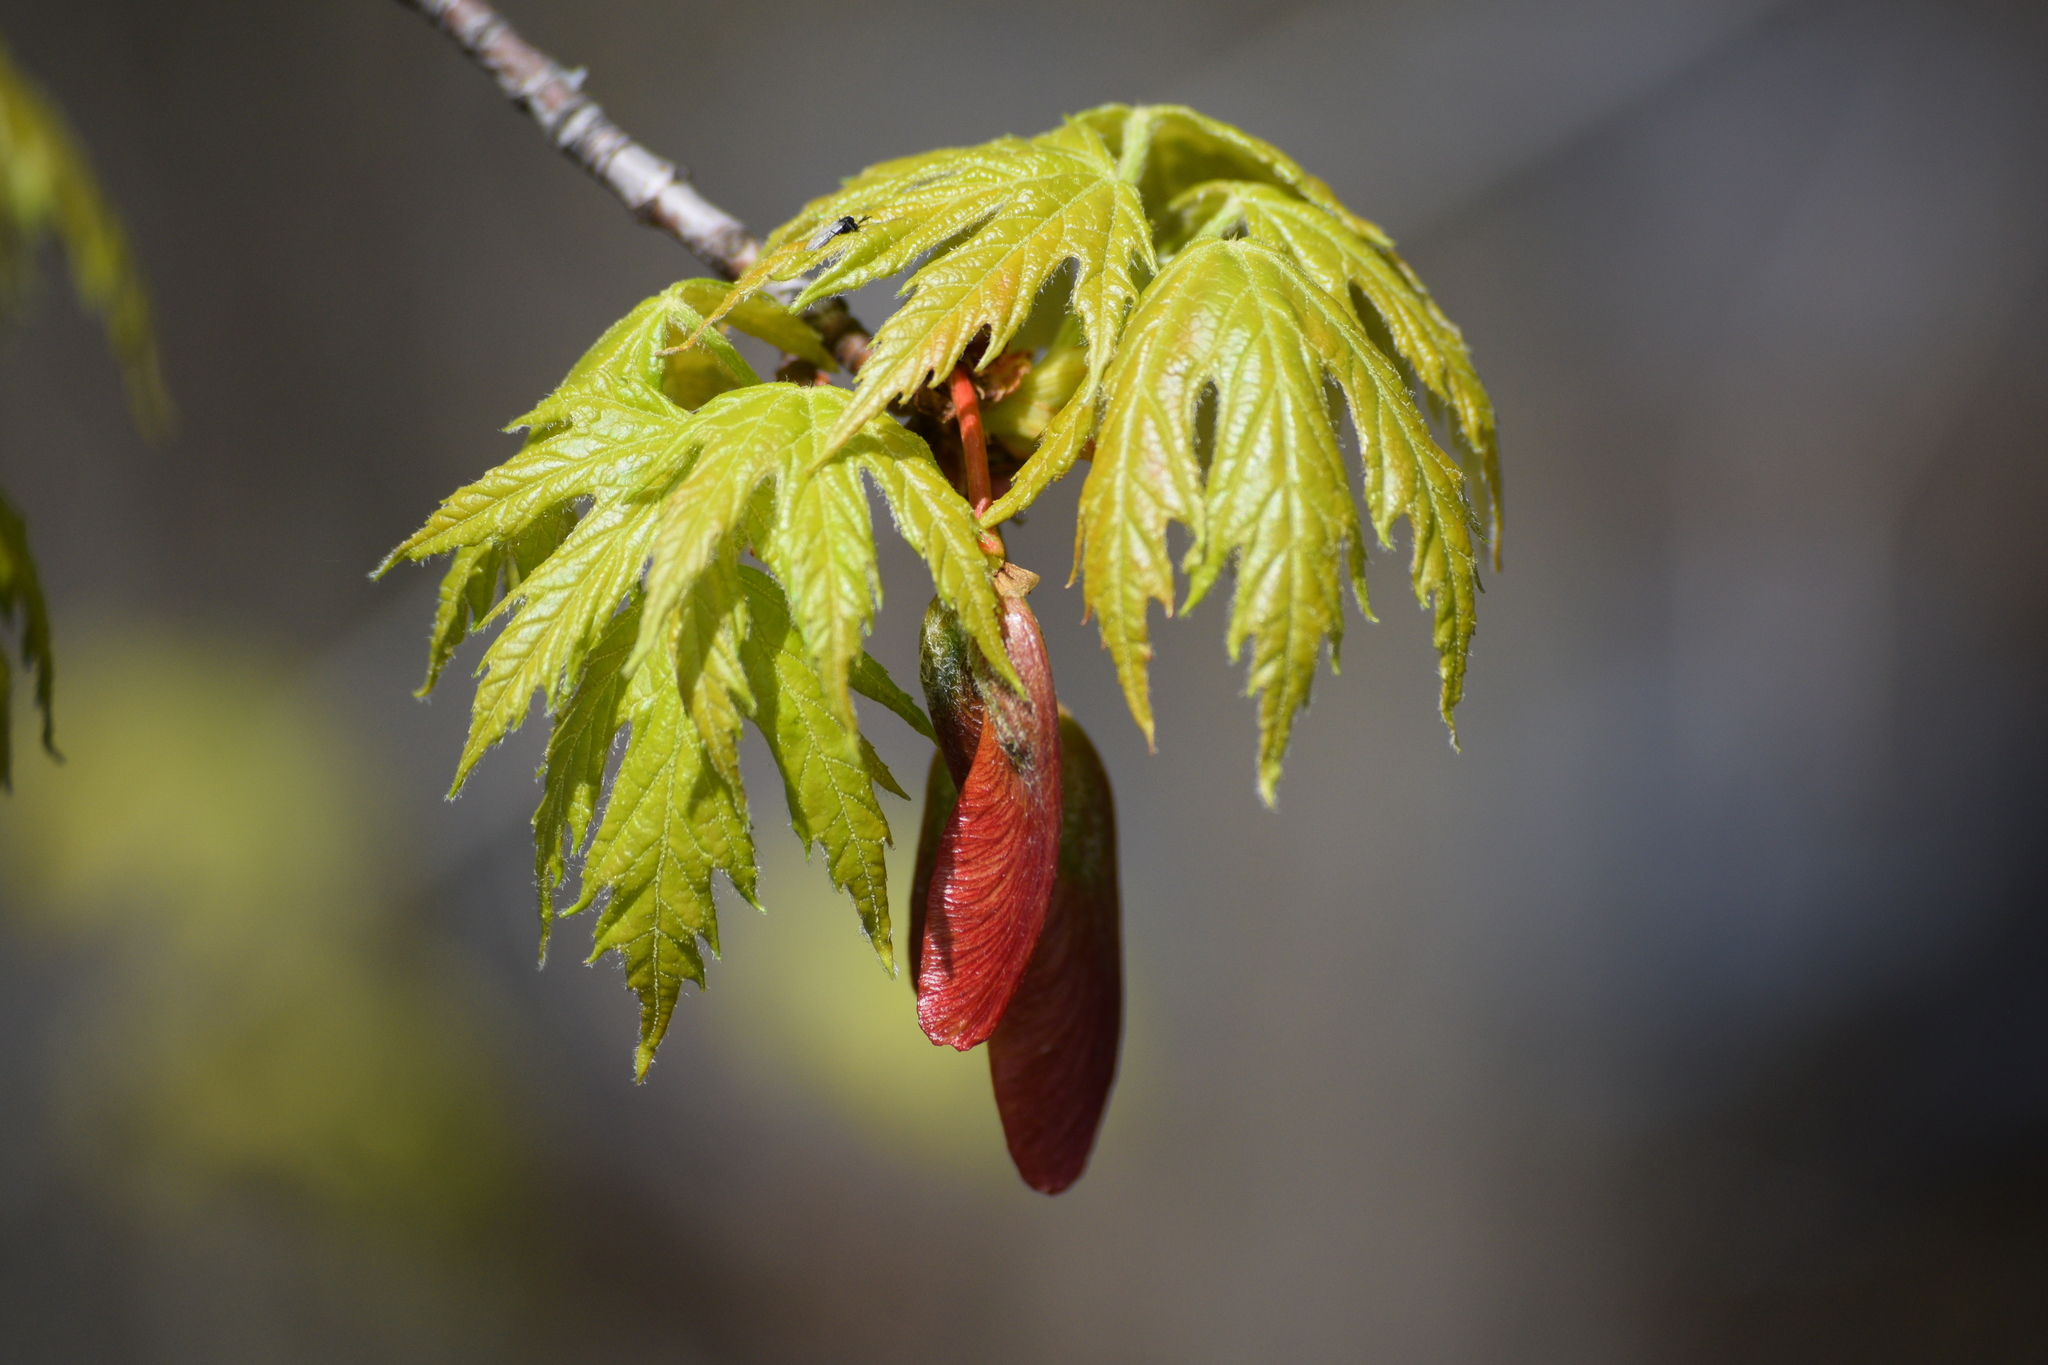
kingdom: Plantae
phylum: Tracheophyta
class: Magnoliopsida
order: Sapindales
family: Sapindaceae
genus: Acer
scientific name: Acer saccharinum
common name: Silver maple
